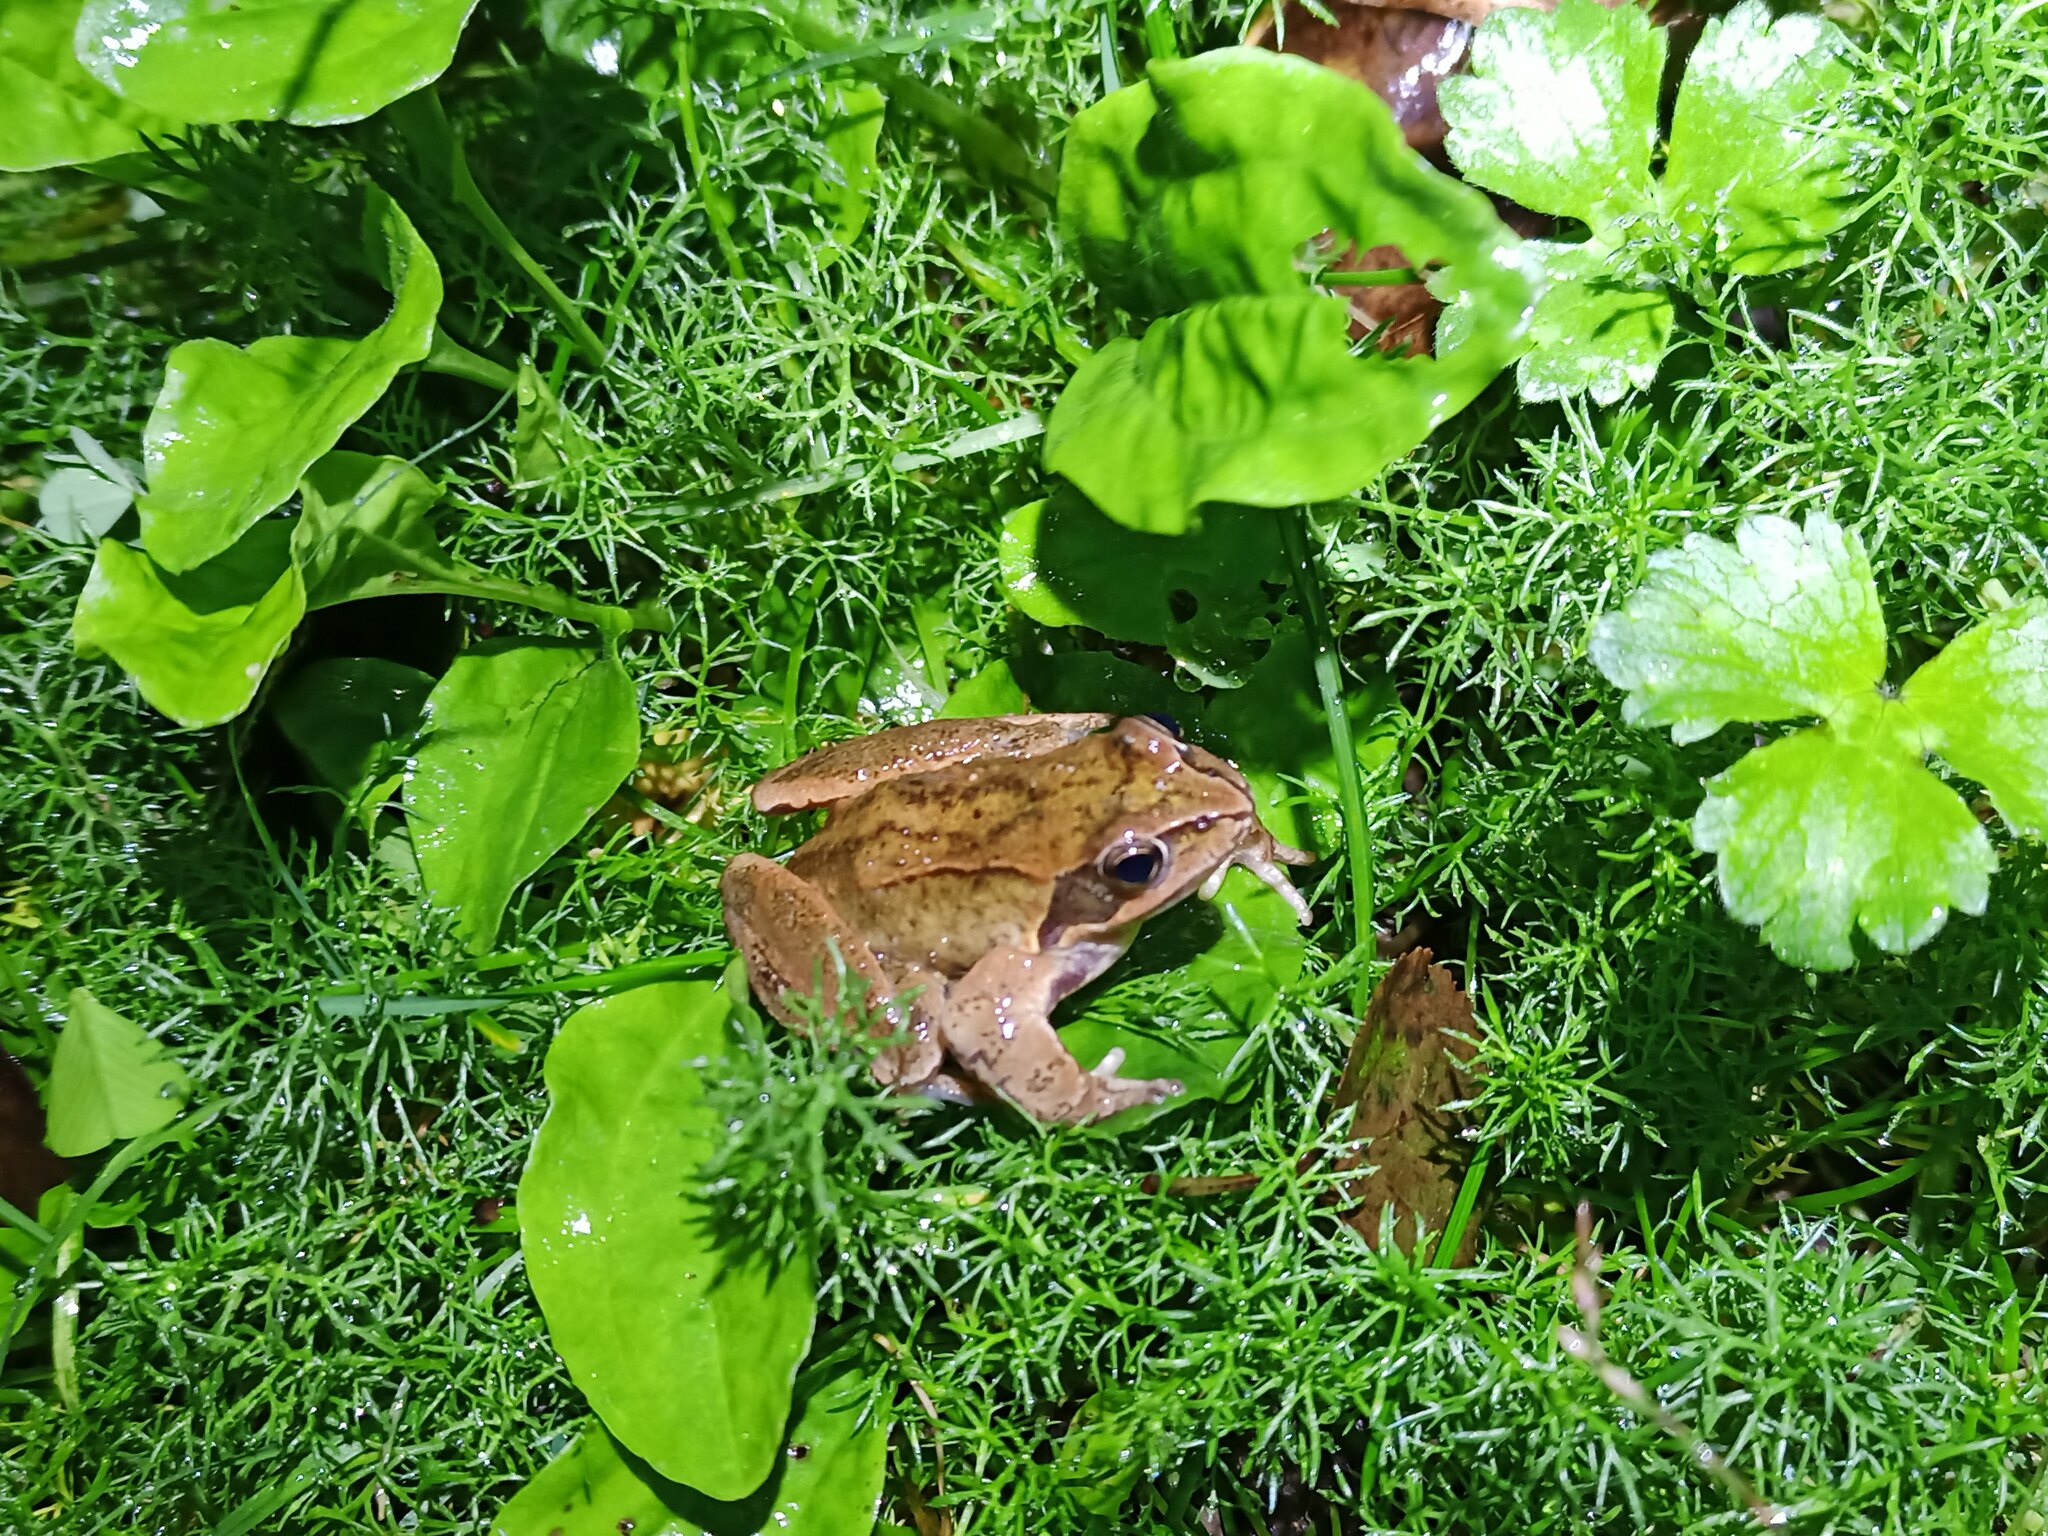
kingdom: Animalia
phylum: Chordata
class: Amphibia
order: Anura
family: Ranidae
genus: Rana
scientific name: Rana temporaria
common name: Common frog
